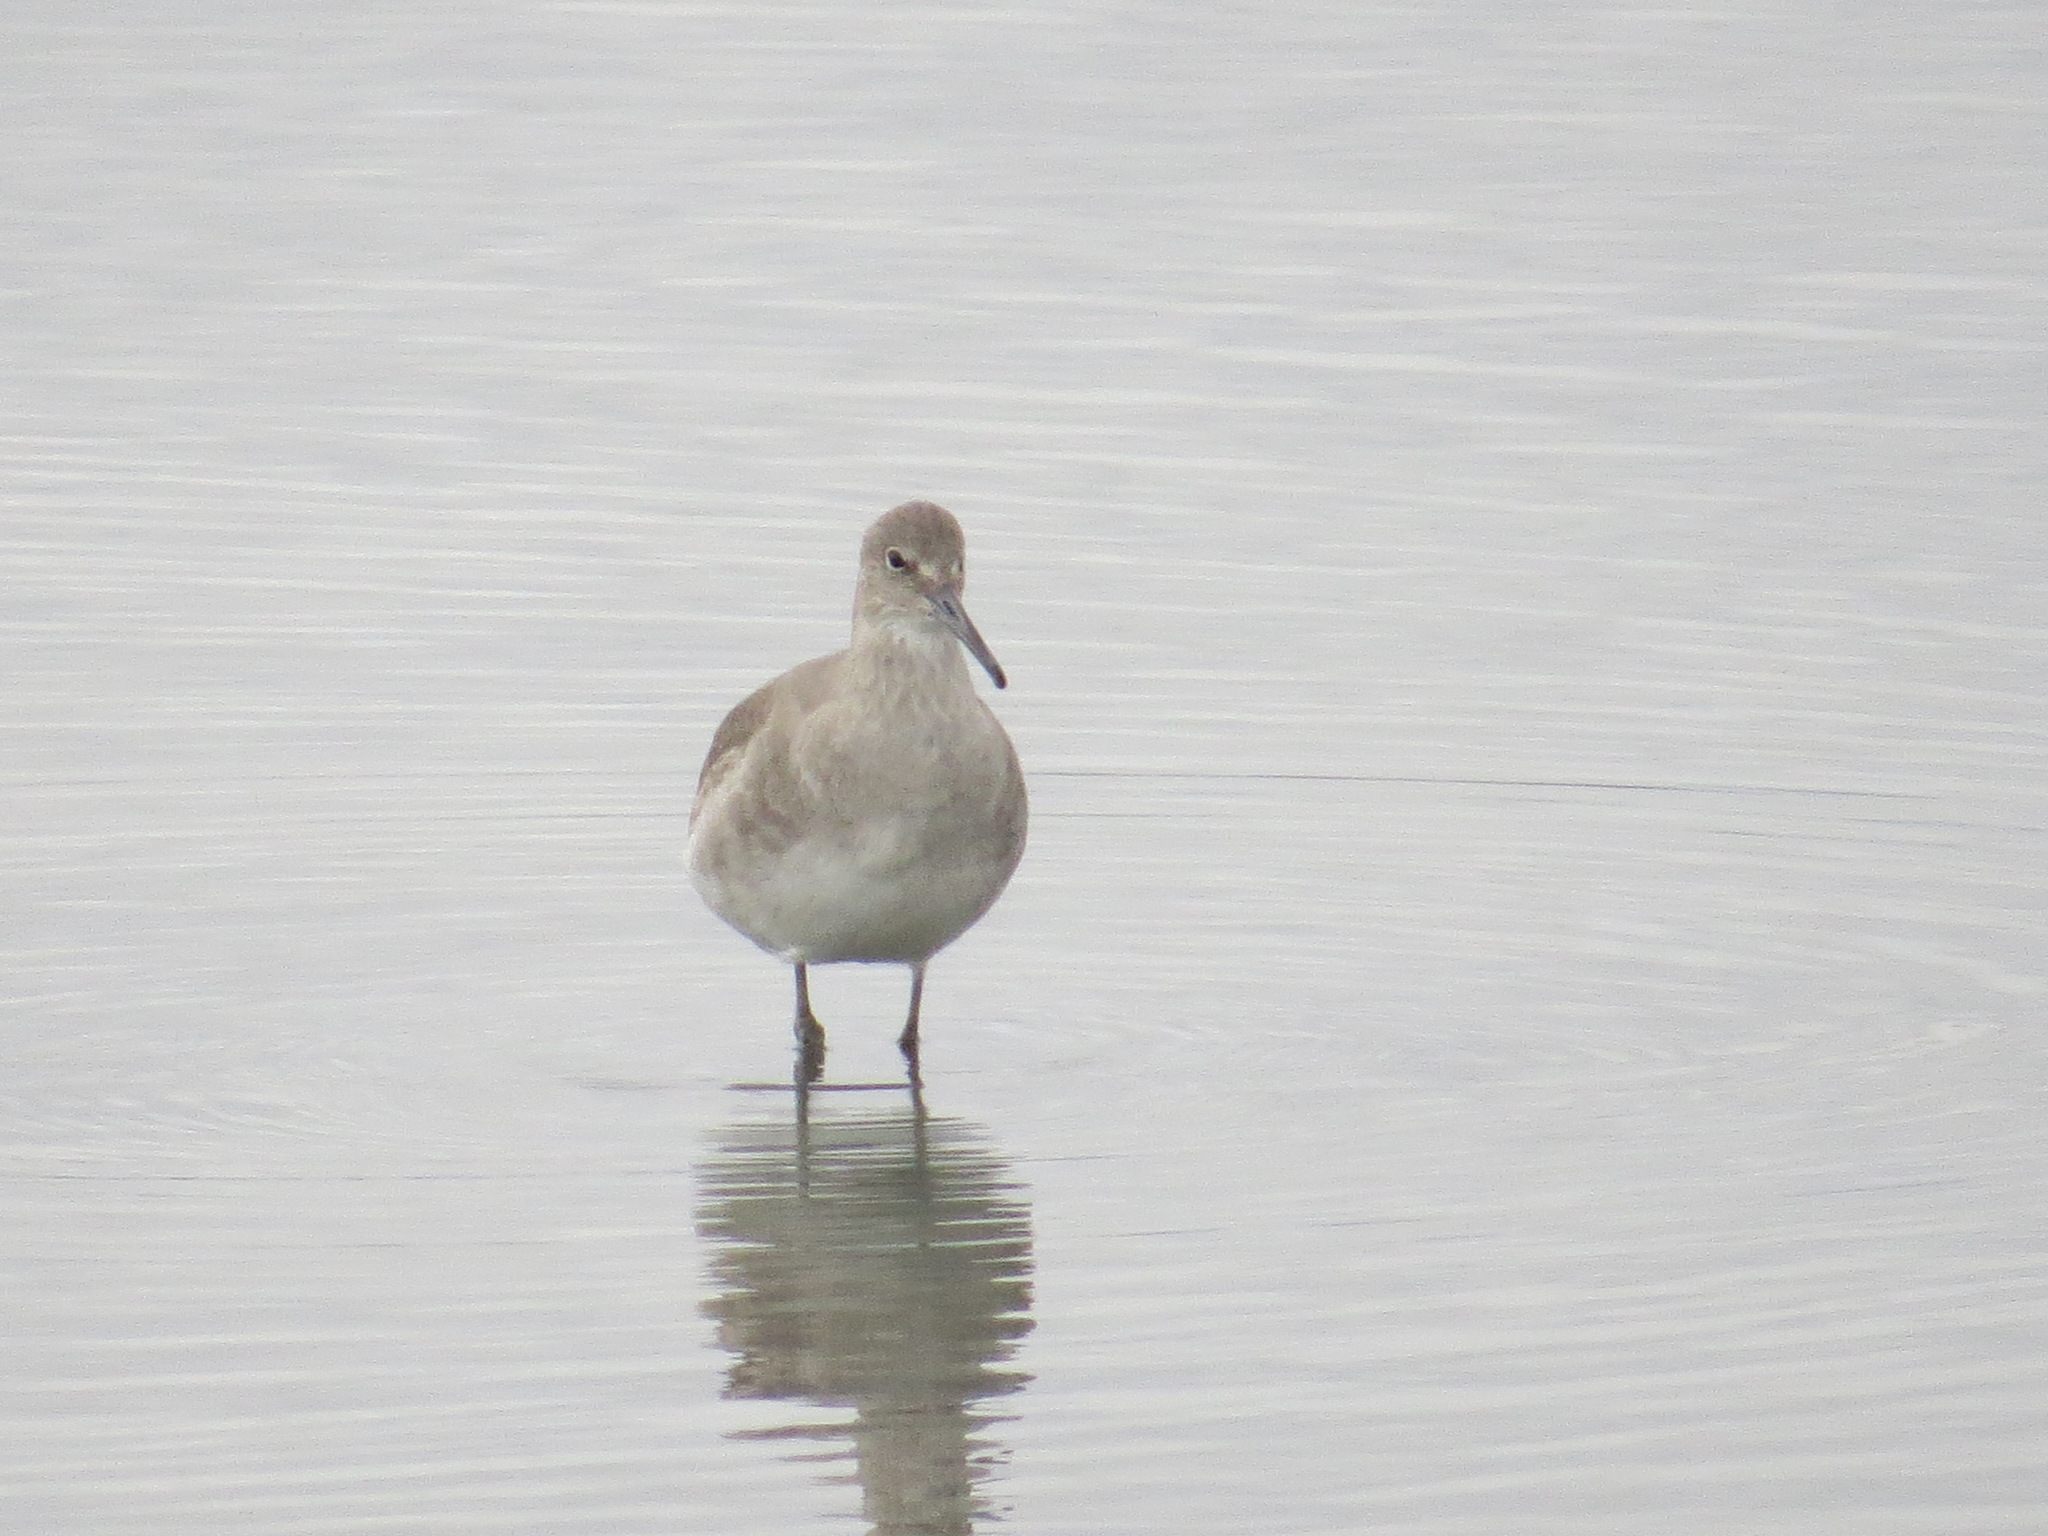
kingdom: Animalia
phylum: Chordata
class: Aves
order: Charadriiformes
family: Scolopacidae
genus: Tringa
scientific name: Tringa semipalmata
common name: Willet
